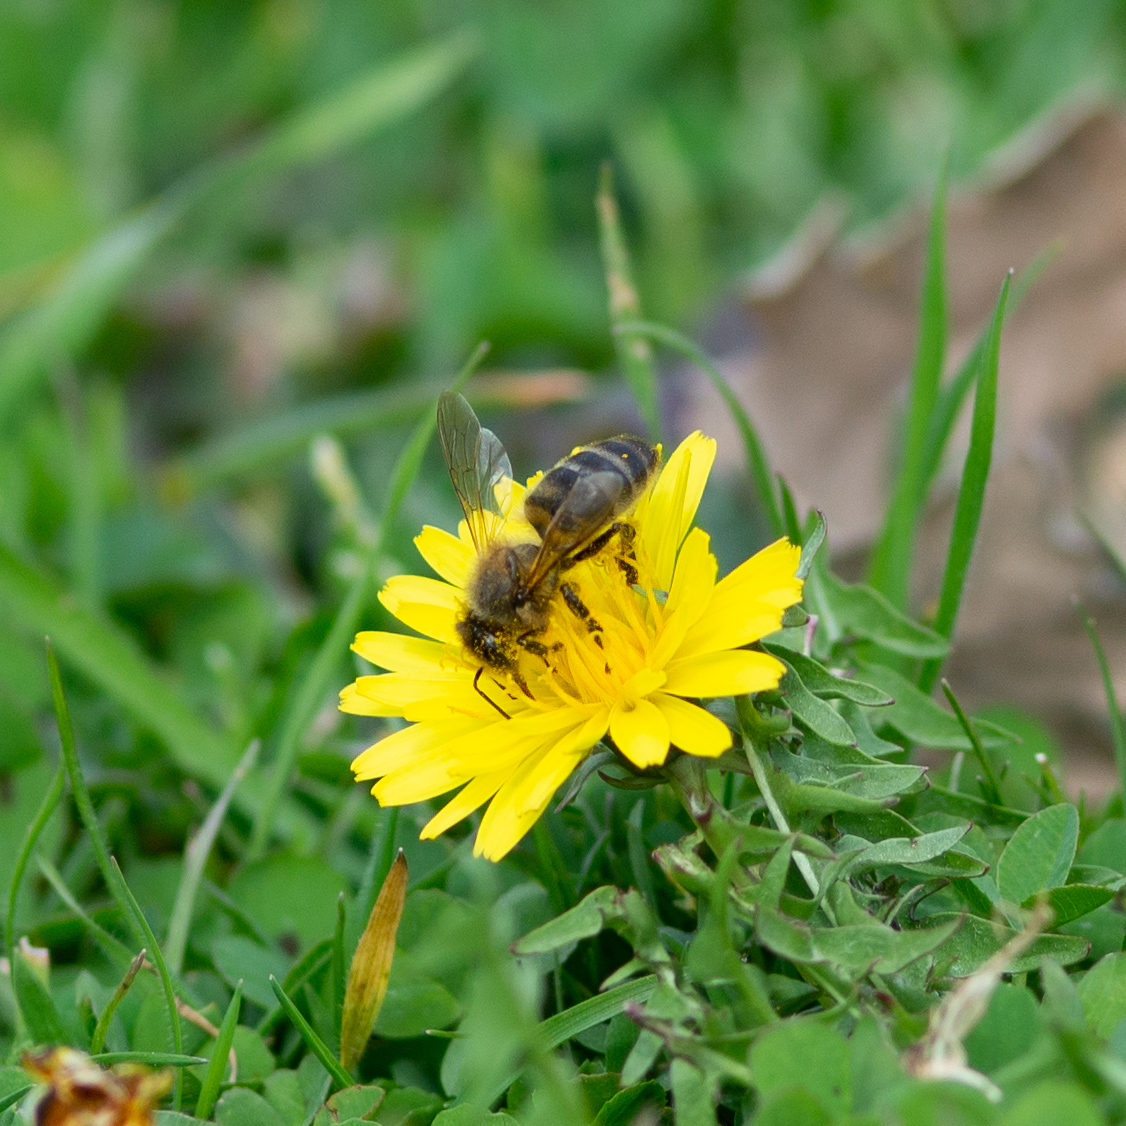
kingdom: Animalia
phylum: Arthropoda
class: Insecta
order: Hymenoptera
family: Apidae
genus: Apis
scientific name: Apis mellifera
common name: Honey bee
